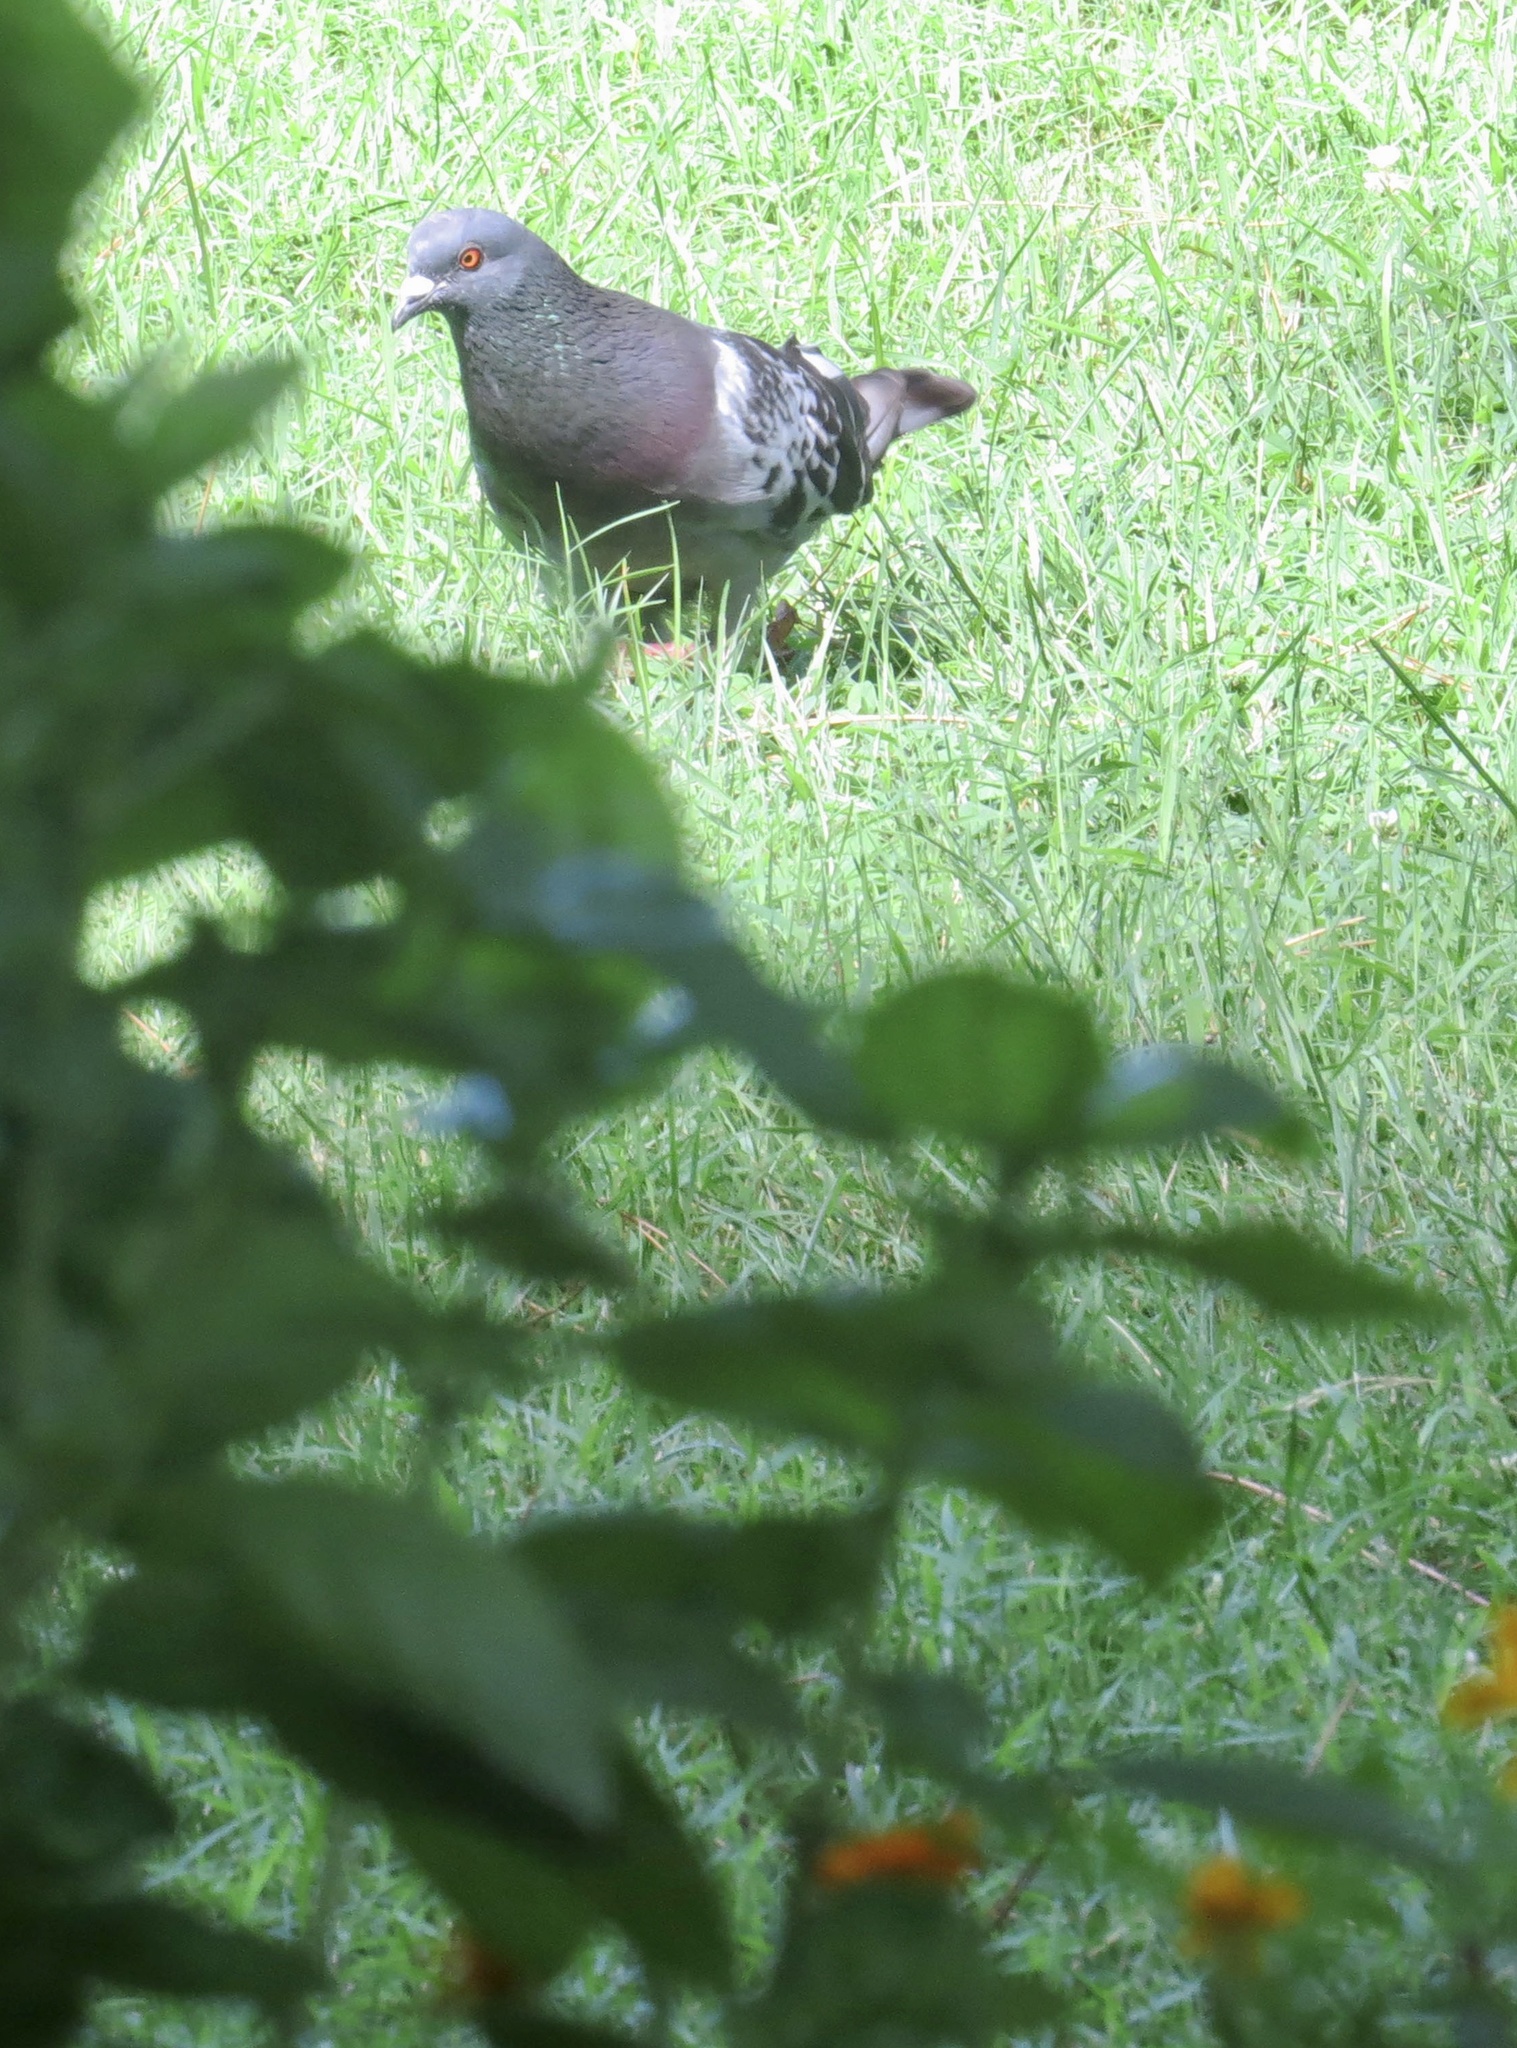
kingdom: Animalia
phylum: Chordata
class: Aves
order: Columbiformes
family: Columbidae
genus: Columba
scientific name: Columba livia
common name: Rock pigeon
